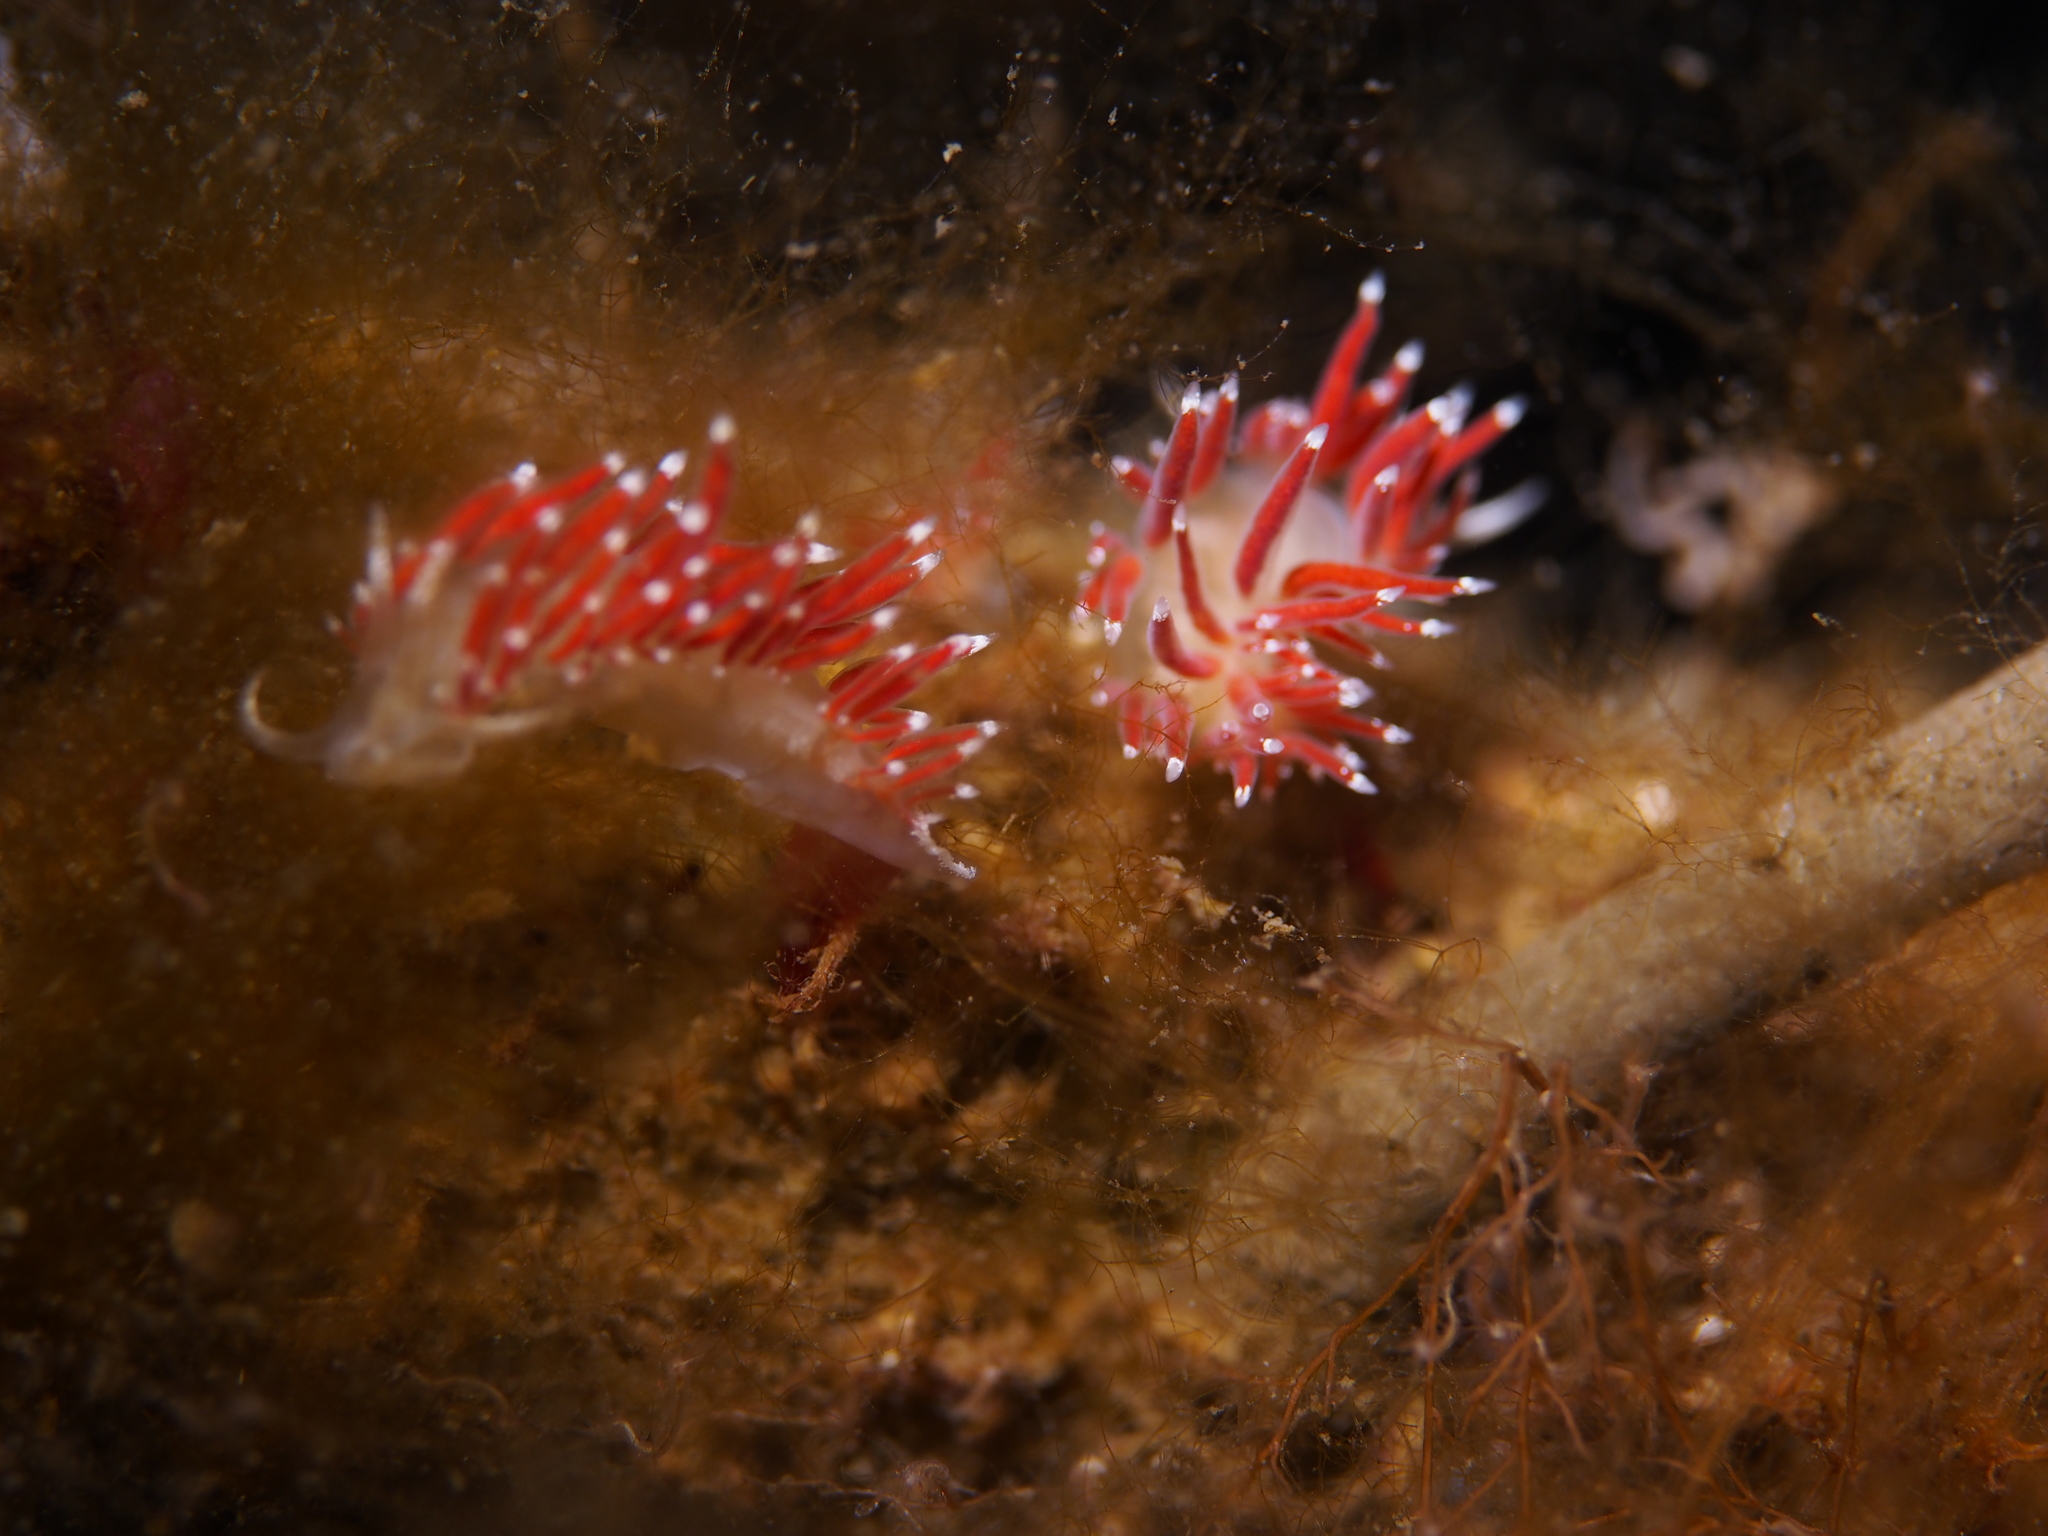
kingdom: Animalia
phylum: Mollusca
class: Gastropoda
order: Nudibranchia
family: Coryphellidae
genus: Coryphella
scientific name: Coryphella gracilis
